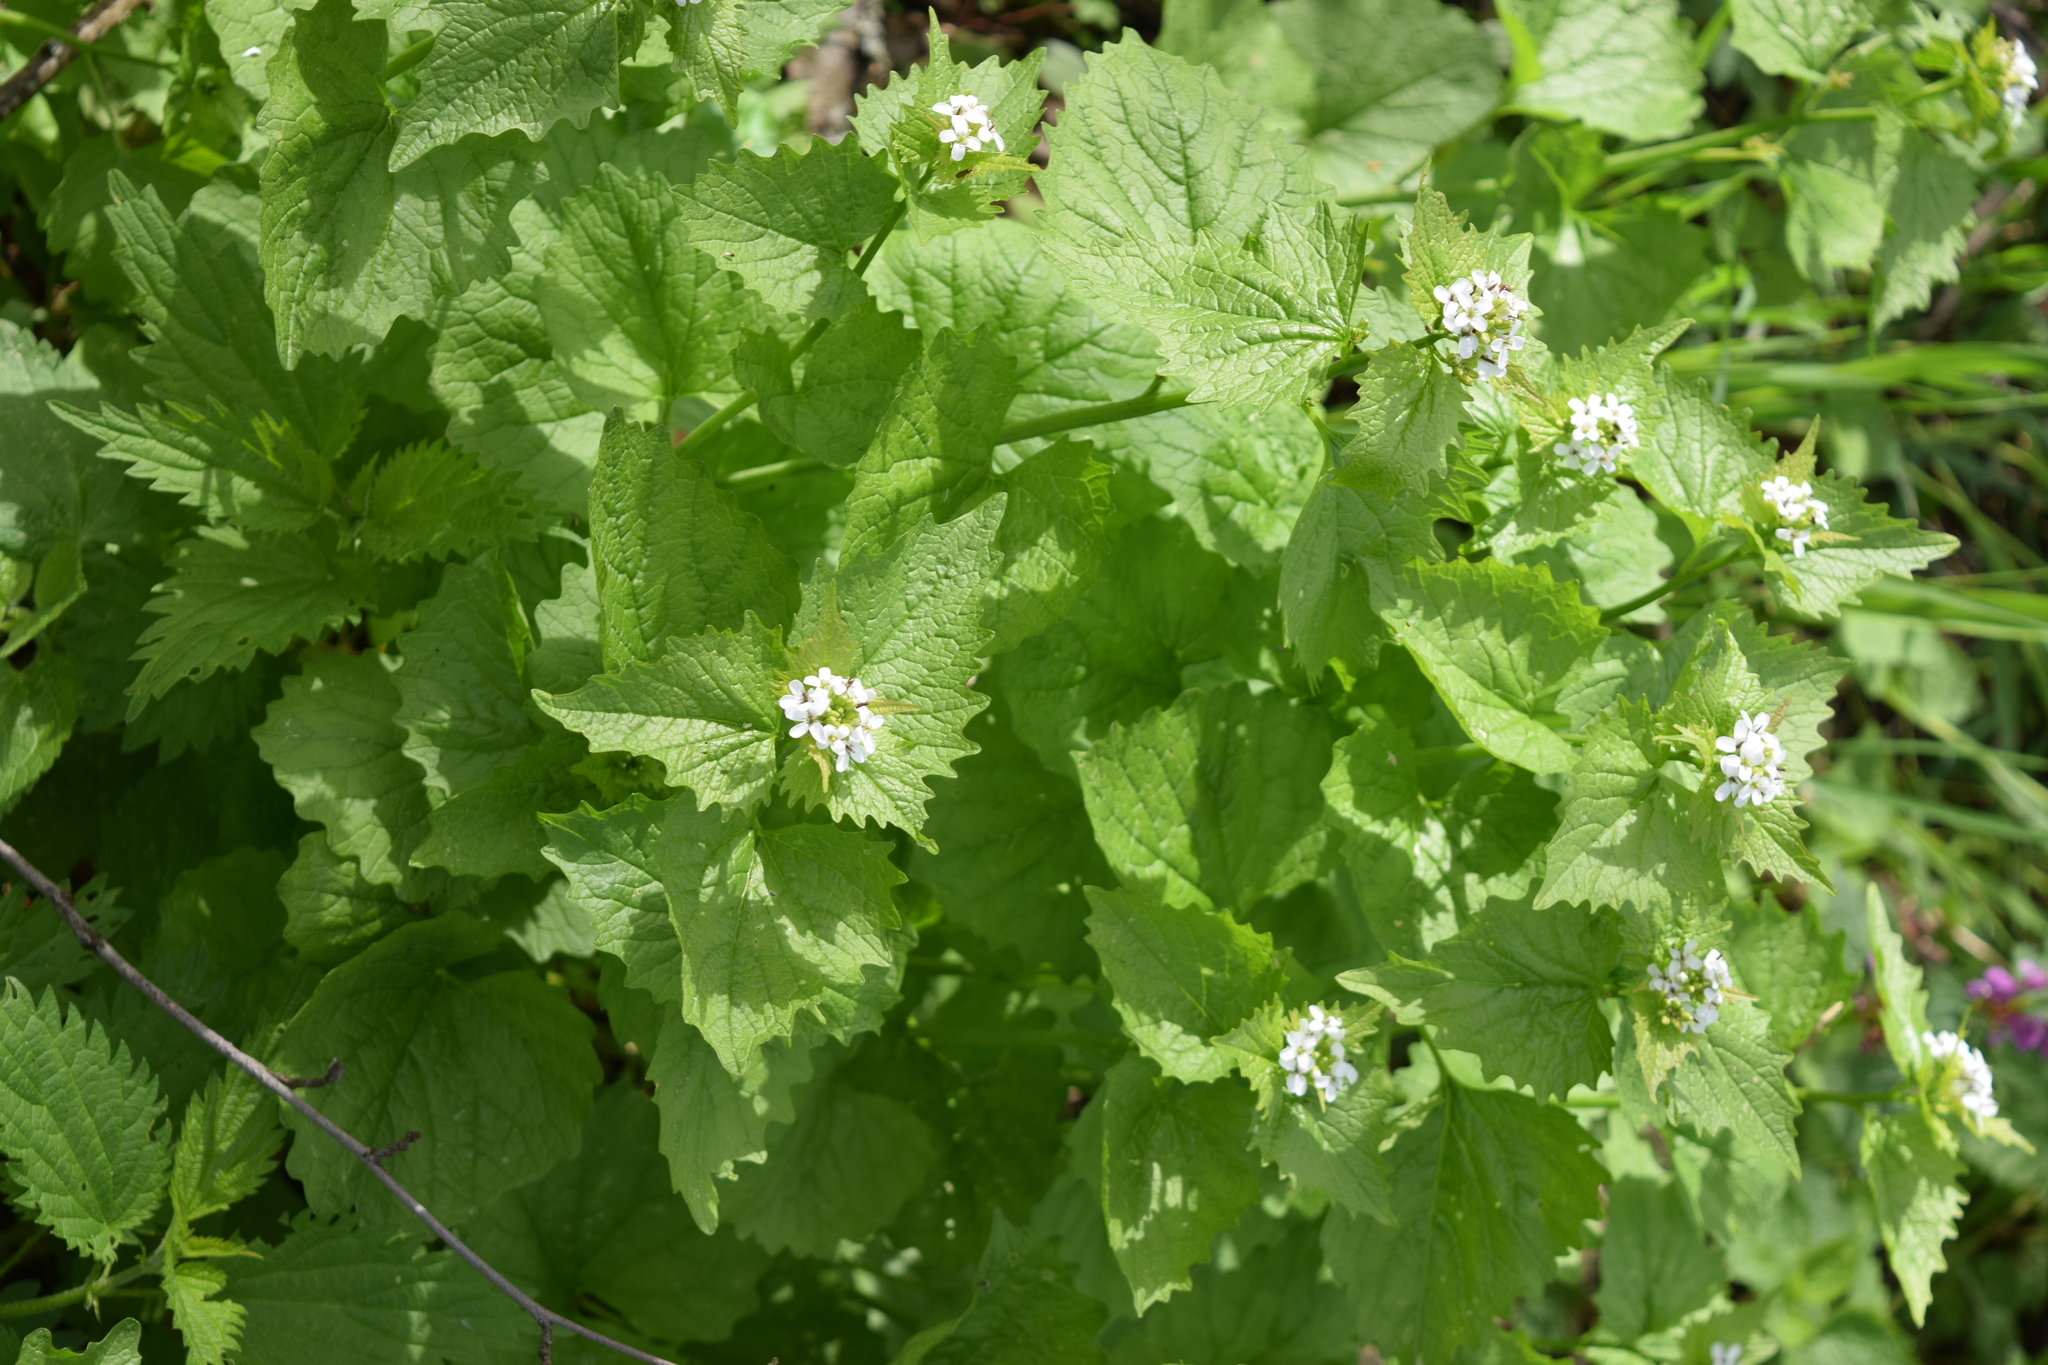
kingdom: Plantae
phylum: Tracheophyta
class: Magnoliopsida
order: Brassicales
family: Brassicaceae
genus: Alliaria
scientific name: Alliaria petiolata
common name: Garlic mustard
